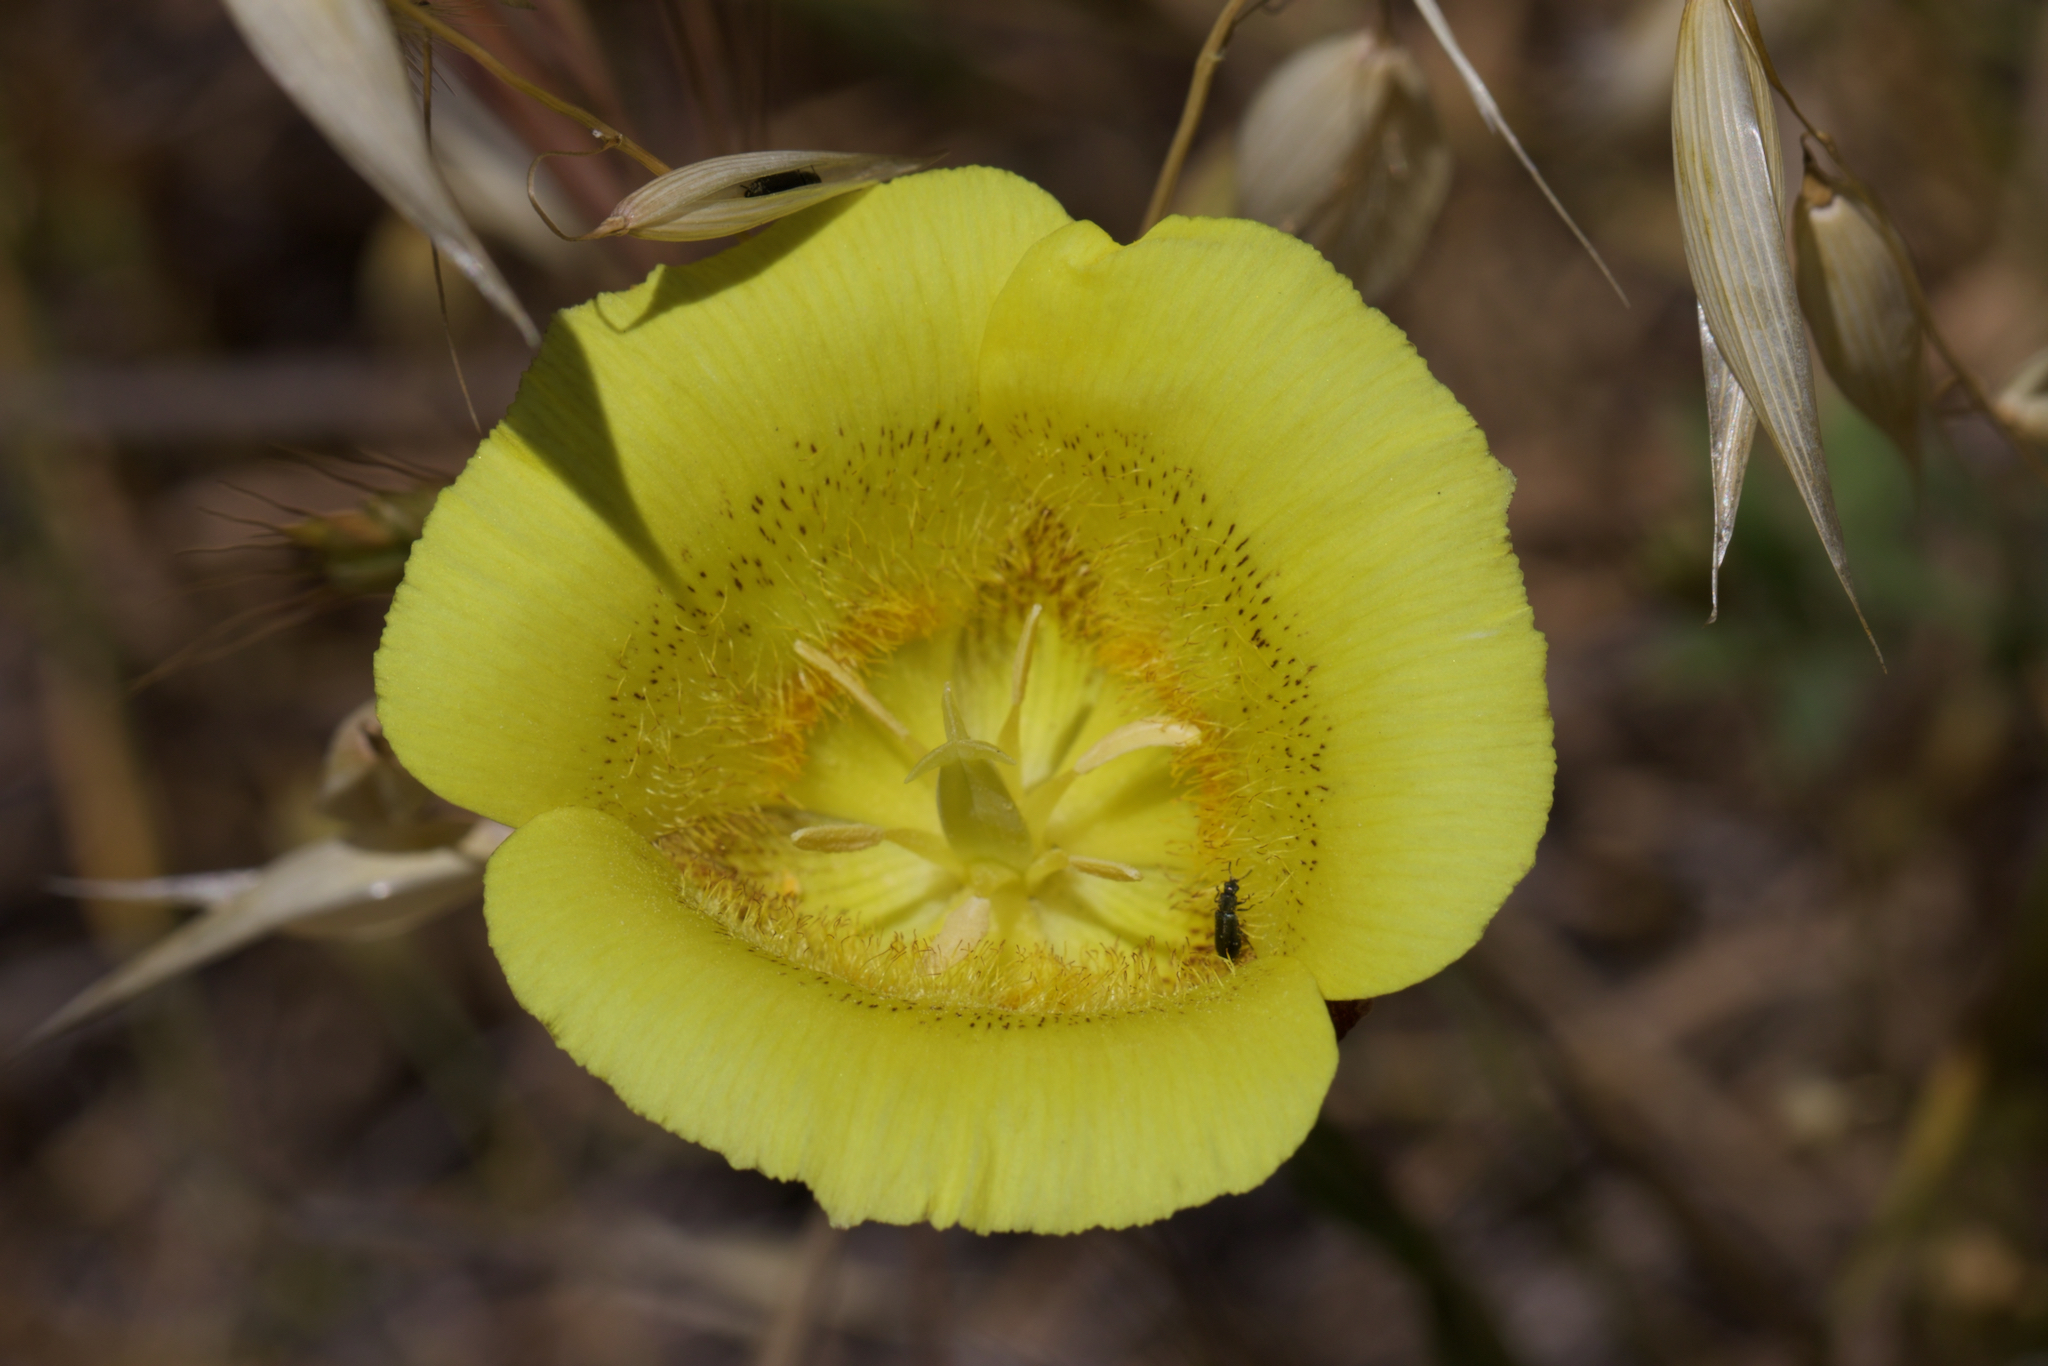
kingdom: Plantae
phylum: Tracheophyta
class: Liliopsida
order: Liliales
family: Liliaceae
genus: Calochortus
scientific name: Calochortus luteus
